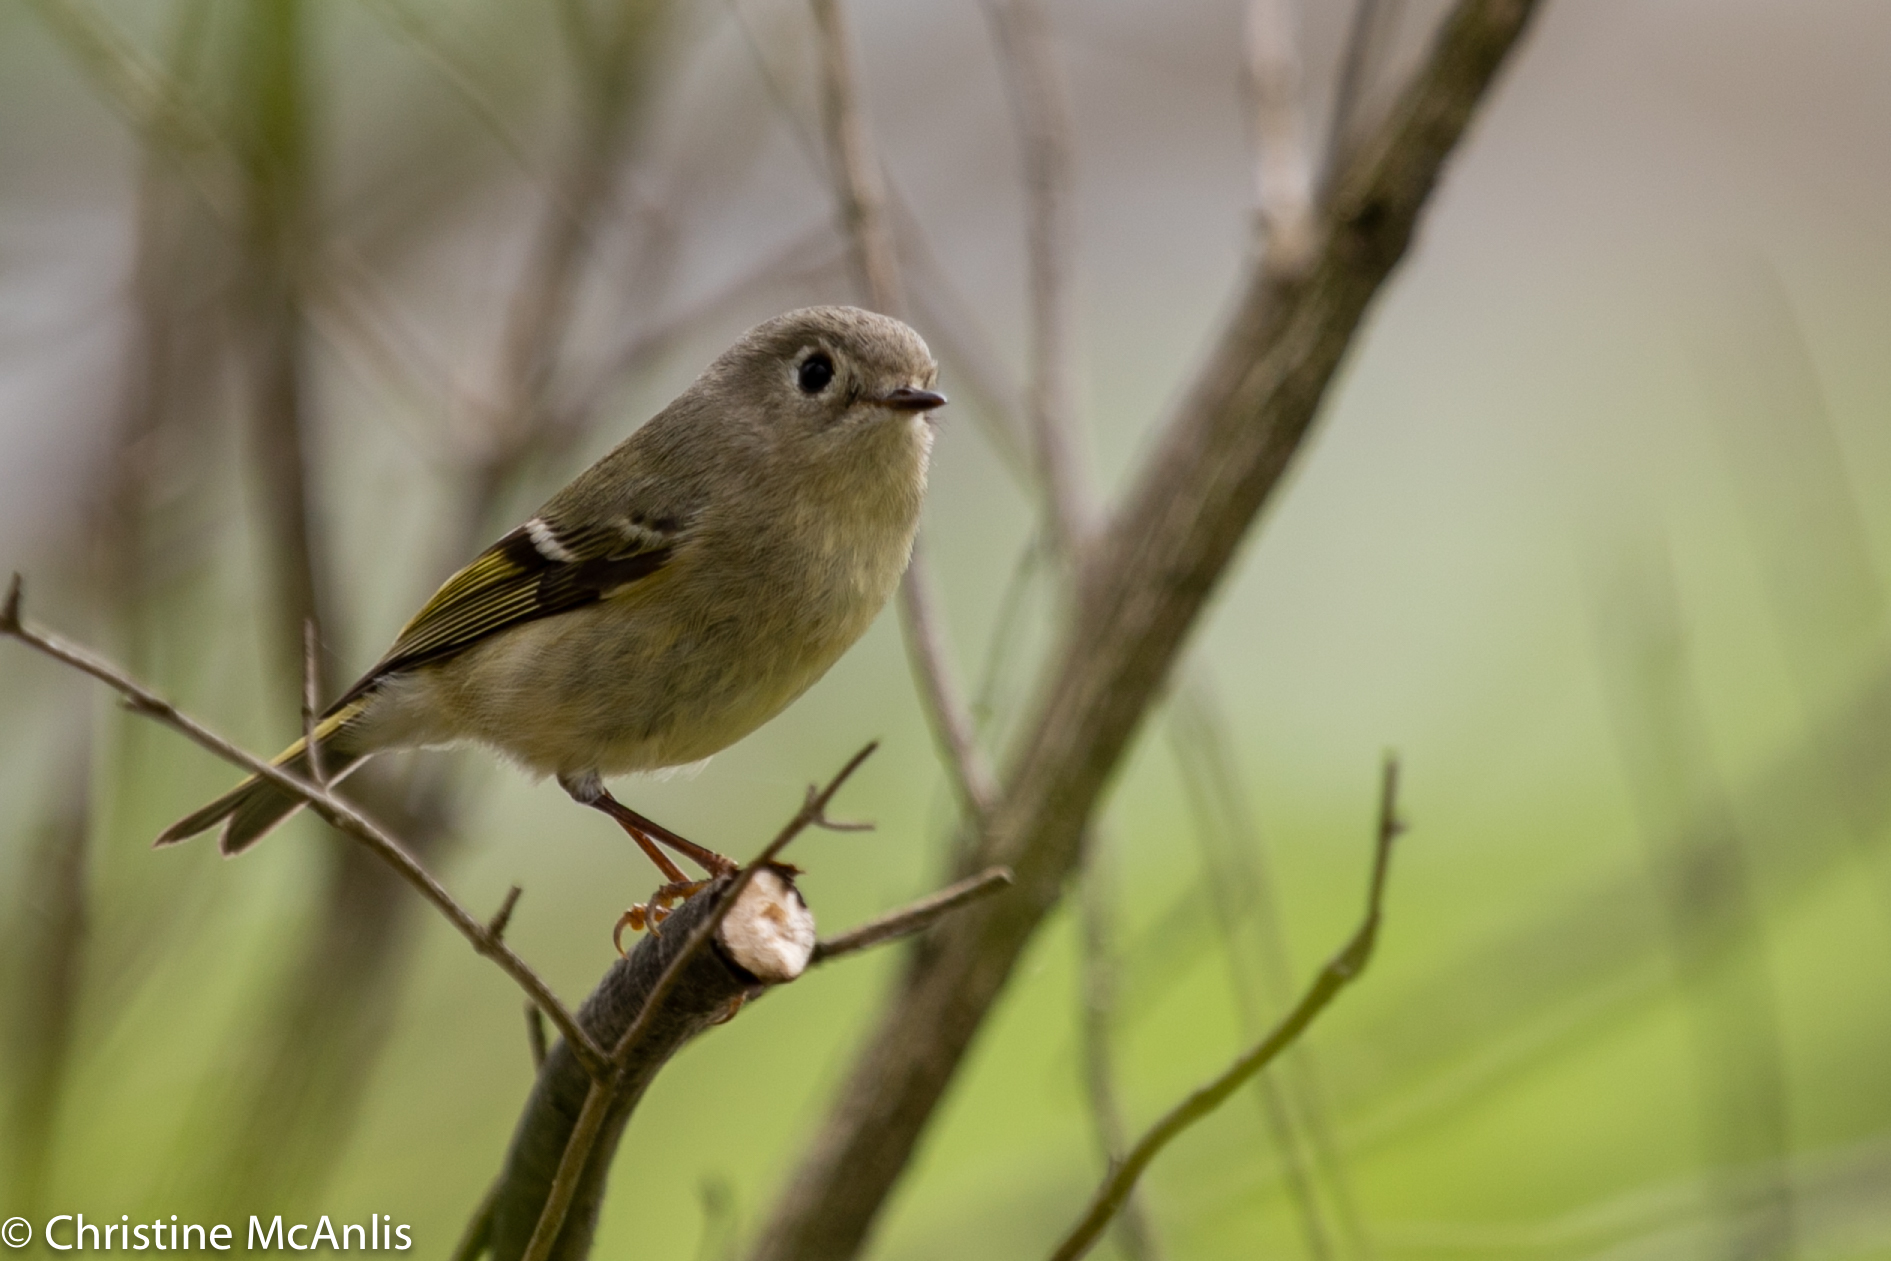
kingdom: Animalia
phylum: Chordata
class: Aves
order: Passeriformes
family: Regulidae
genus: Regulus
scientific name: Regulus calendula
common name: Ruby-crowned kinglet
